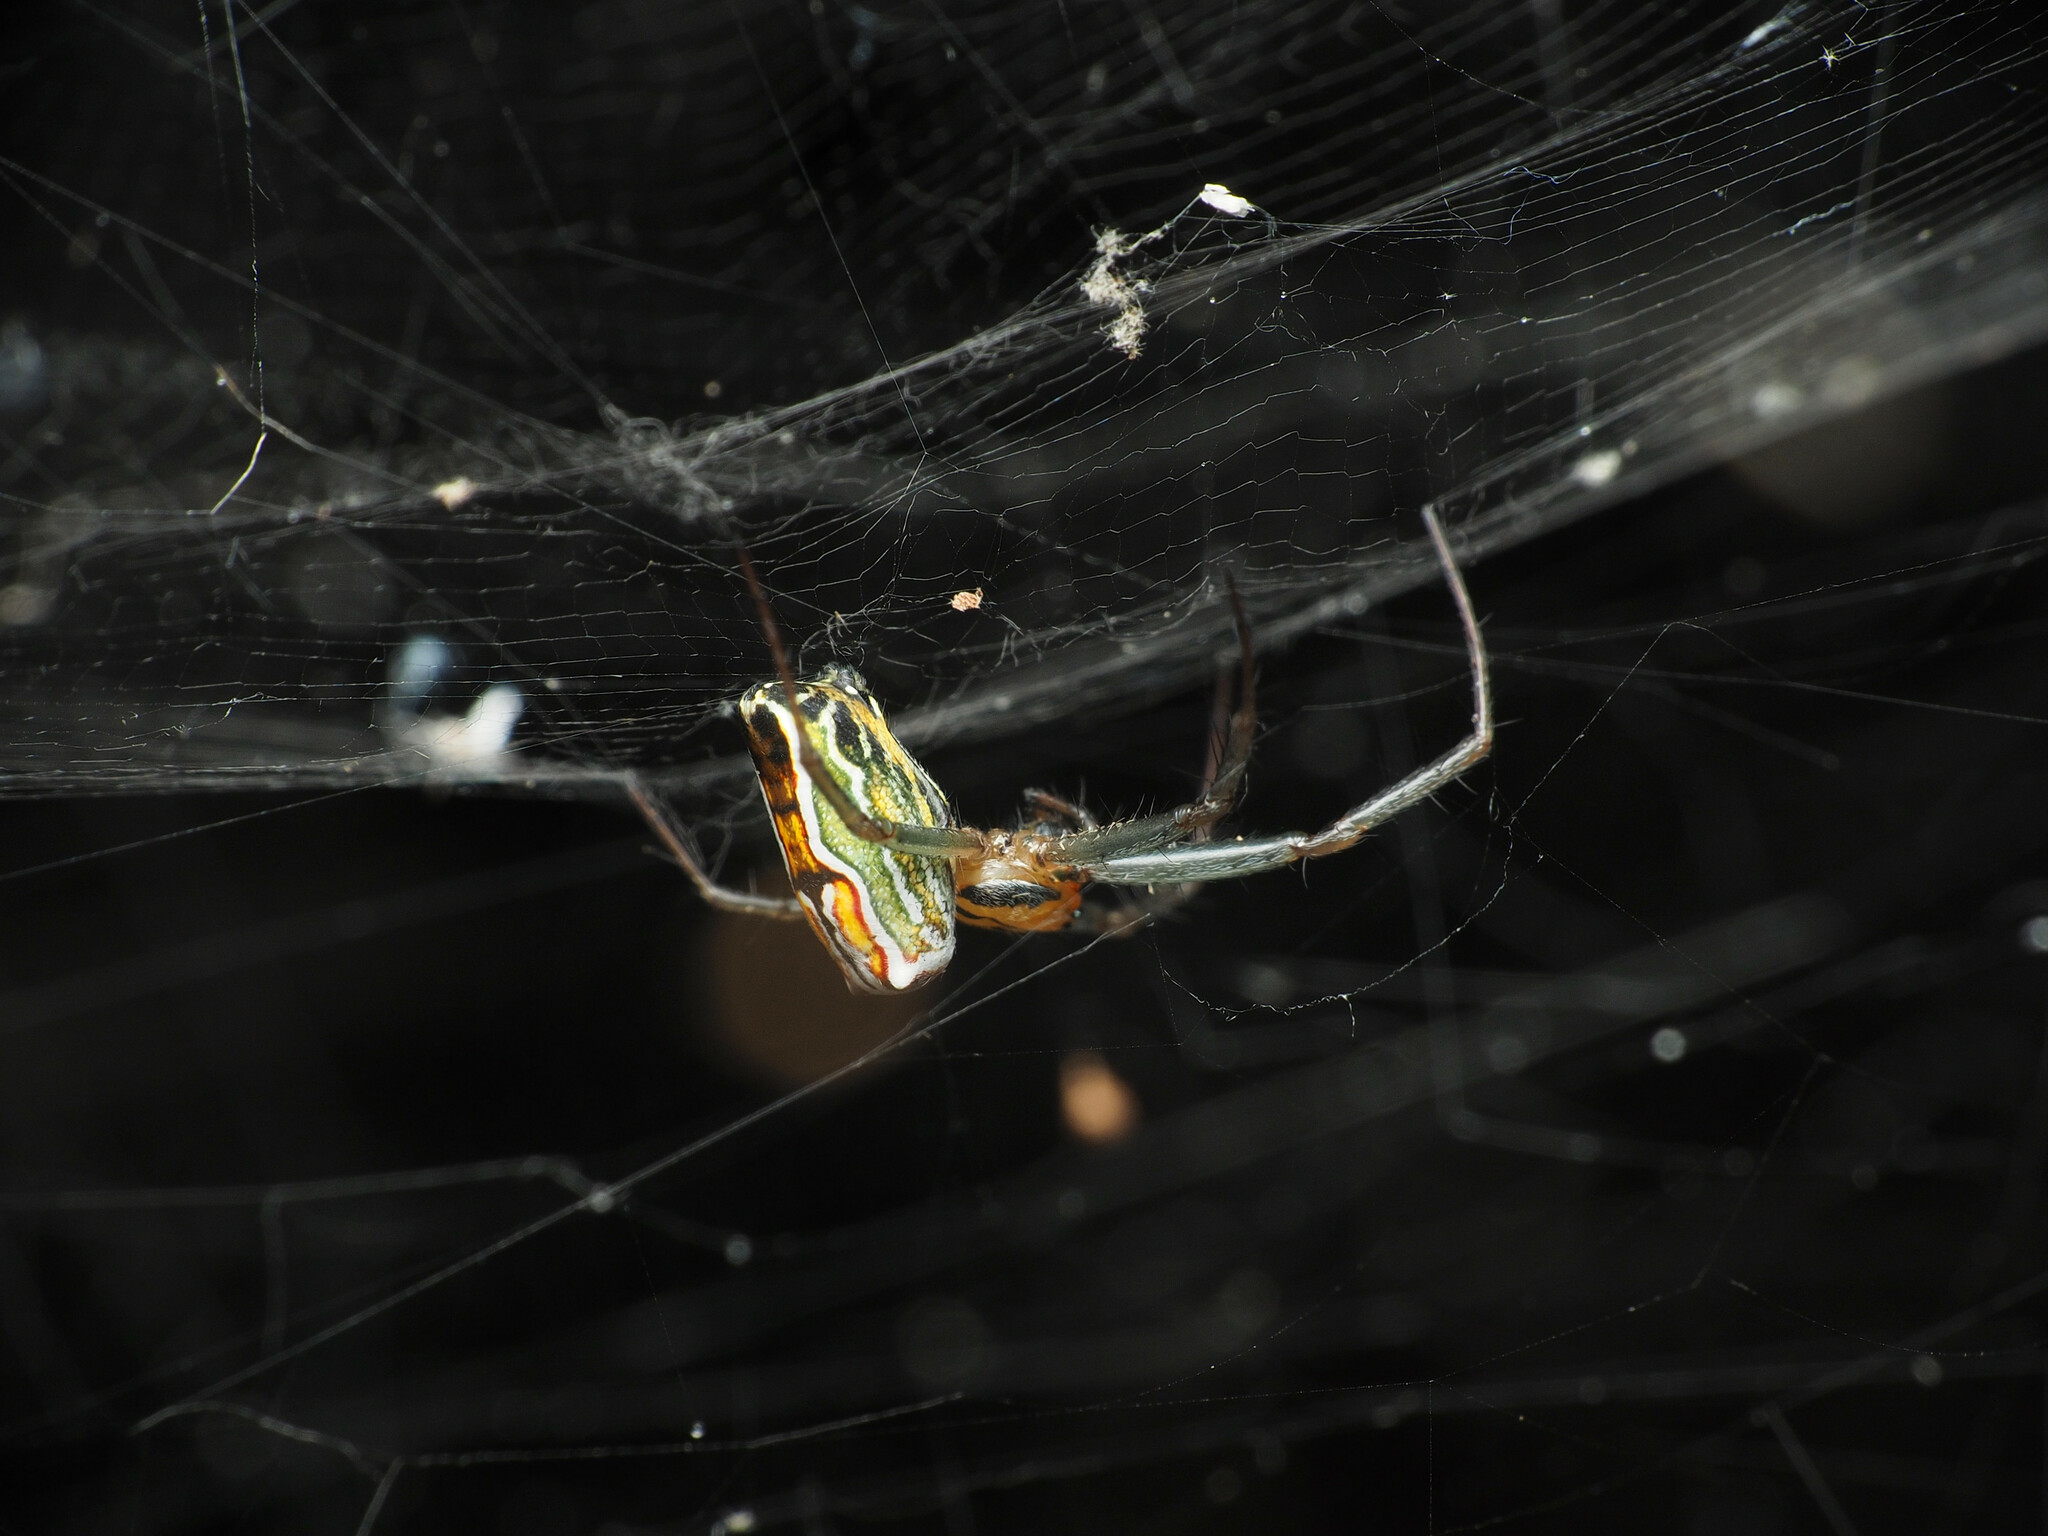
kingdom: Animalia
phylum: Arthropoda
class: Arachnida
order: Araneae
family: Araneidae
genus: Mecynogea
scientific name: Mecynogea lemniscata
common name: Orb weavers
